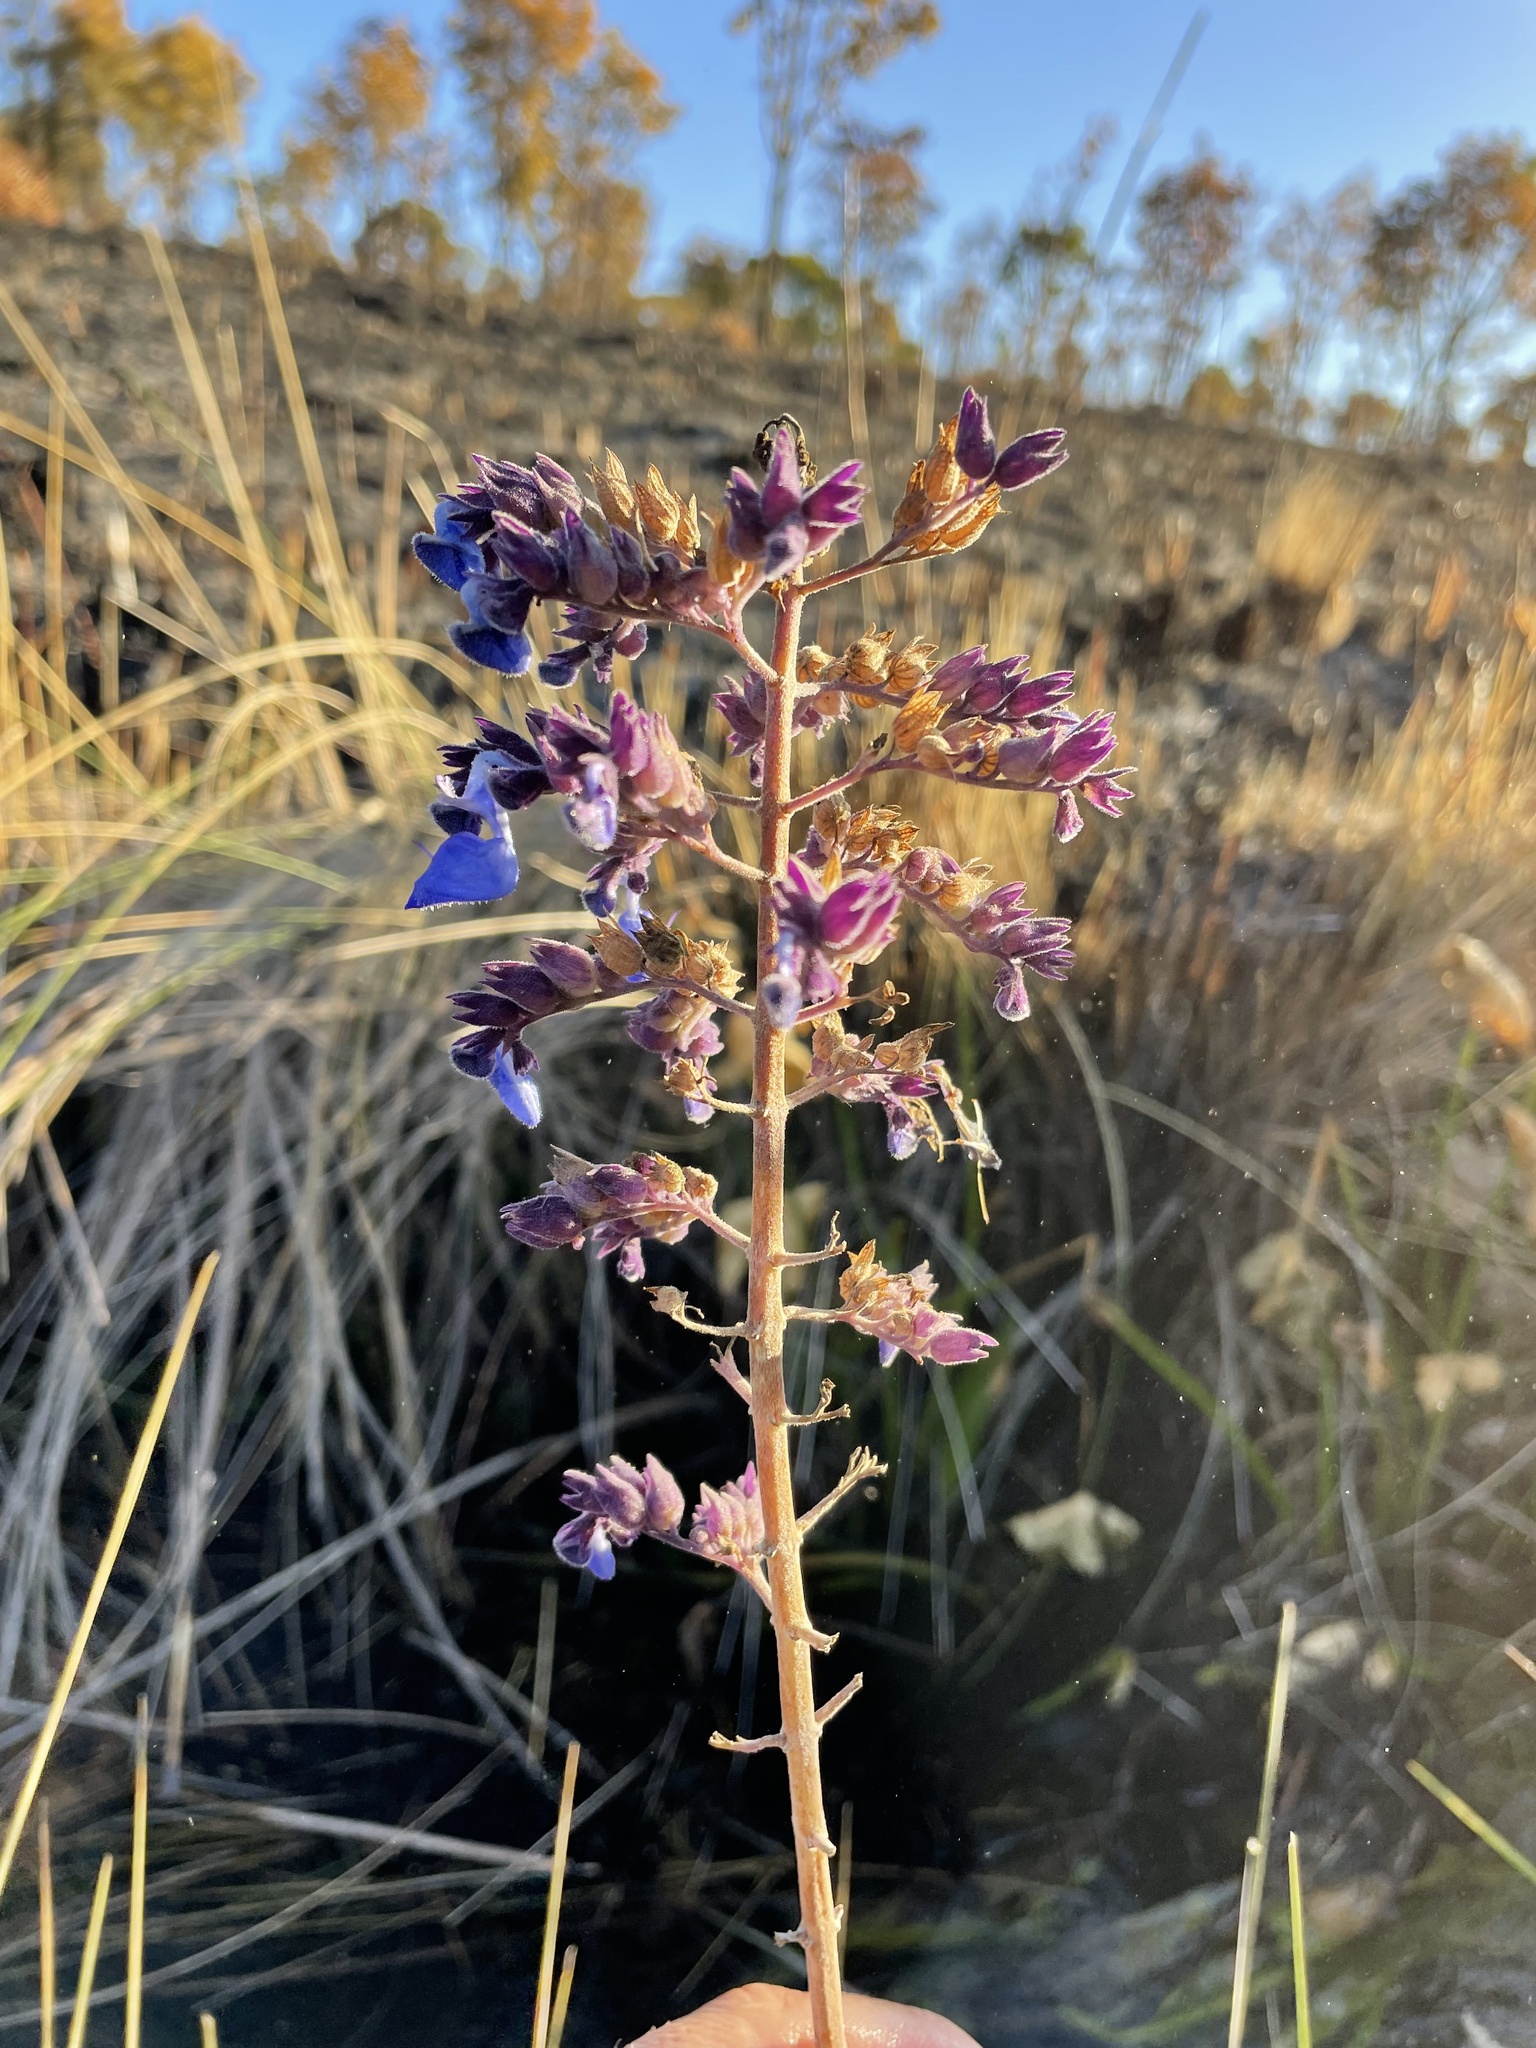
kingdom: Plantae
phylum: Tracheophyta
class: Magnoliopsida
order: Lamiales
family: Lamiaceae
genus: Coleus
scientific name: Coleus mirabilis
